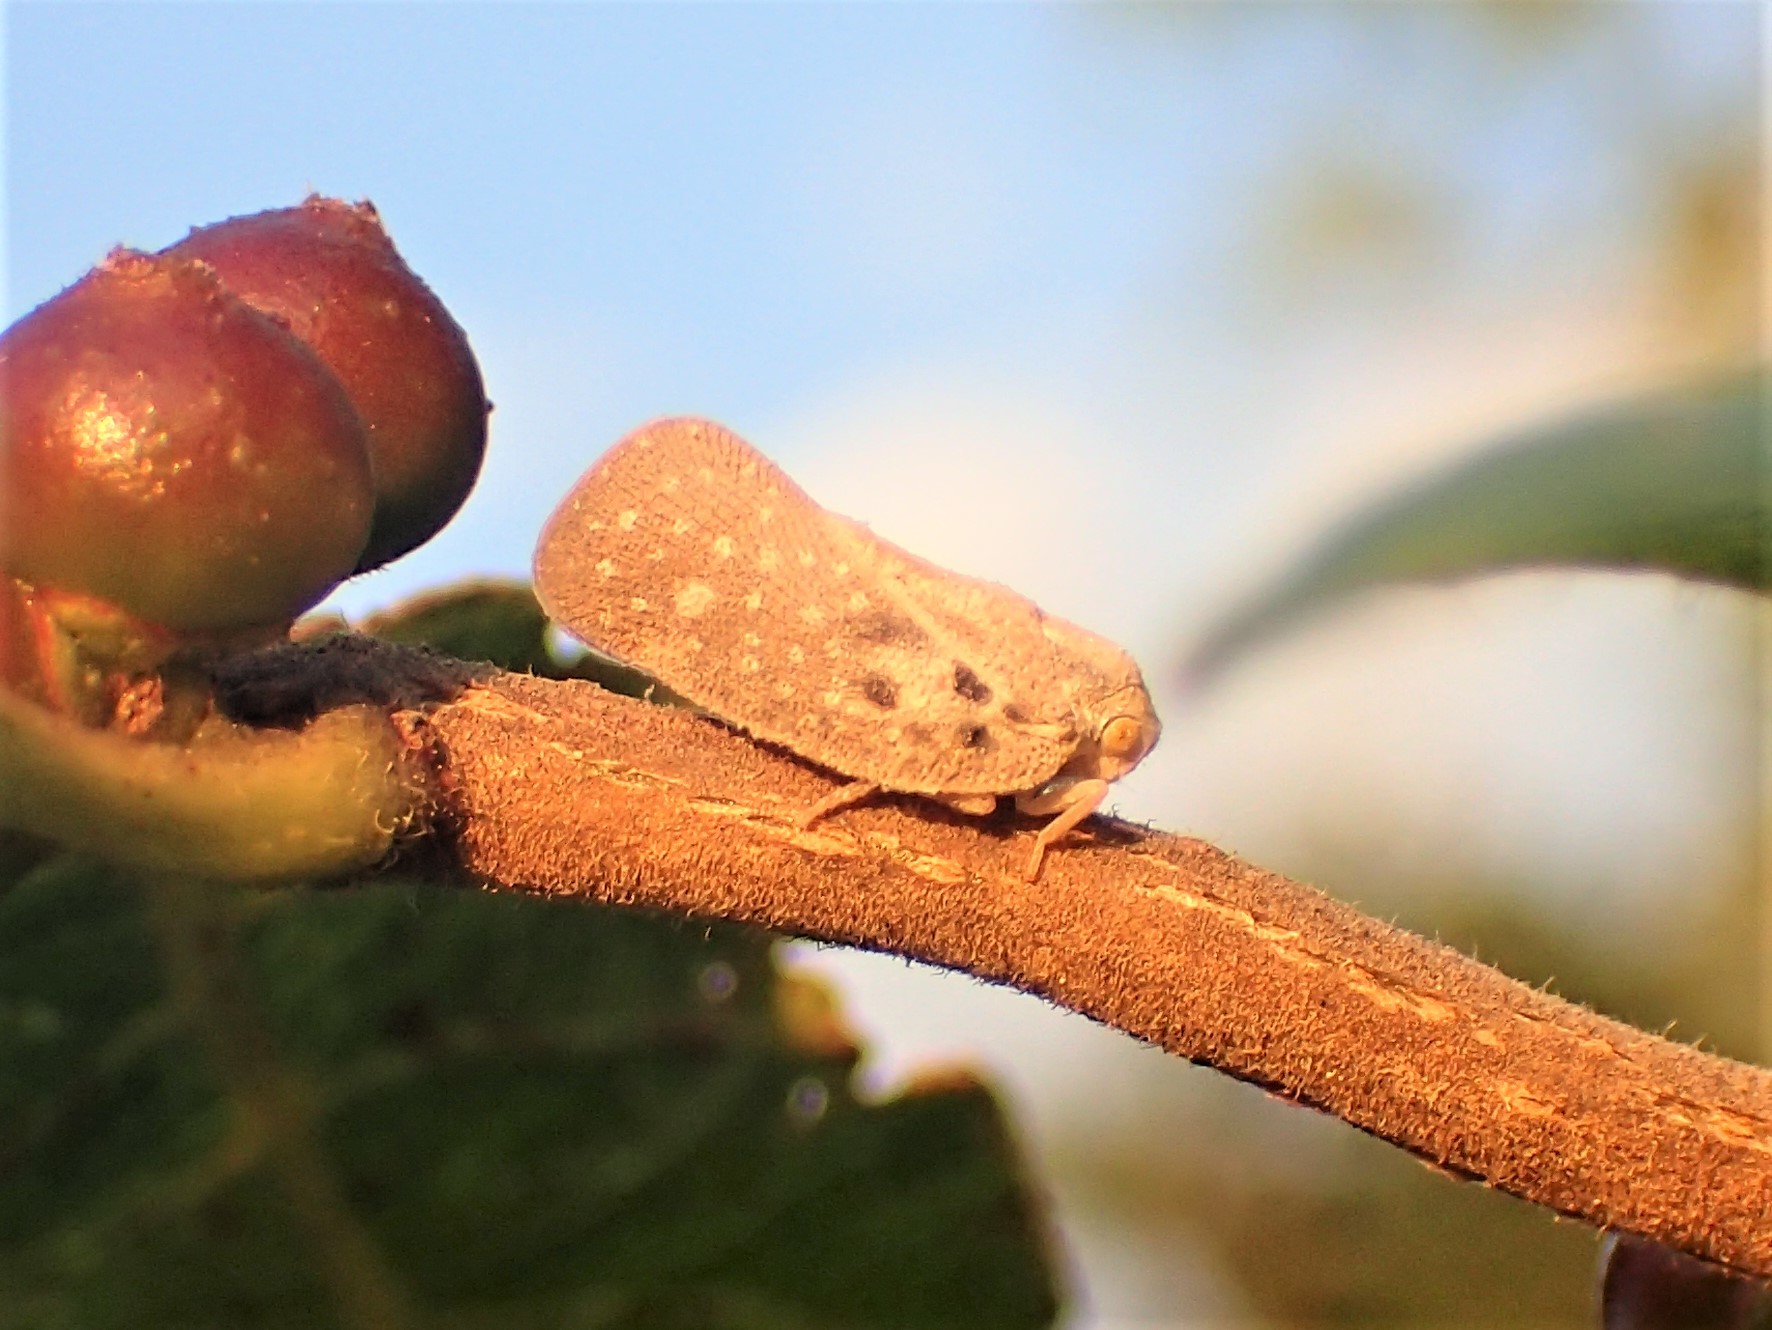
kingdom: Animalia
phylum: Arthropoda
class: Insecta
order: Hemiptera
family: Flatidae
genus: Metcalfa
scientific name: Metcalfa pruinosa
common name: Citrus flatid planthopper
